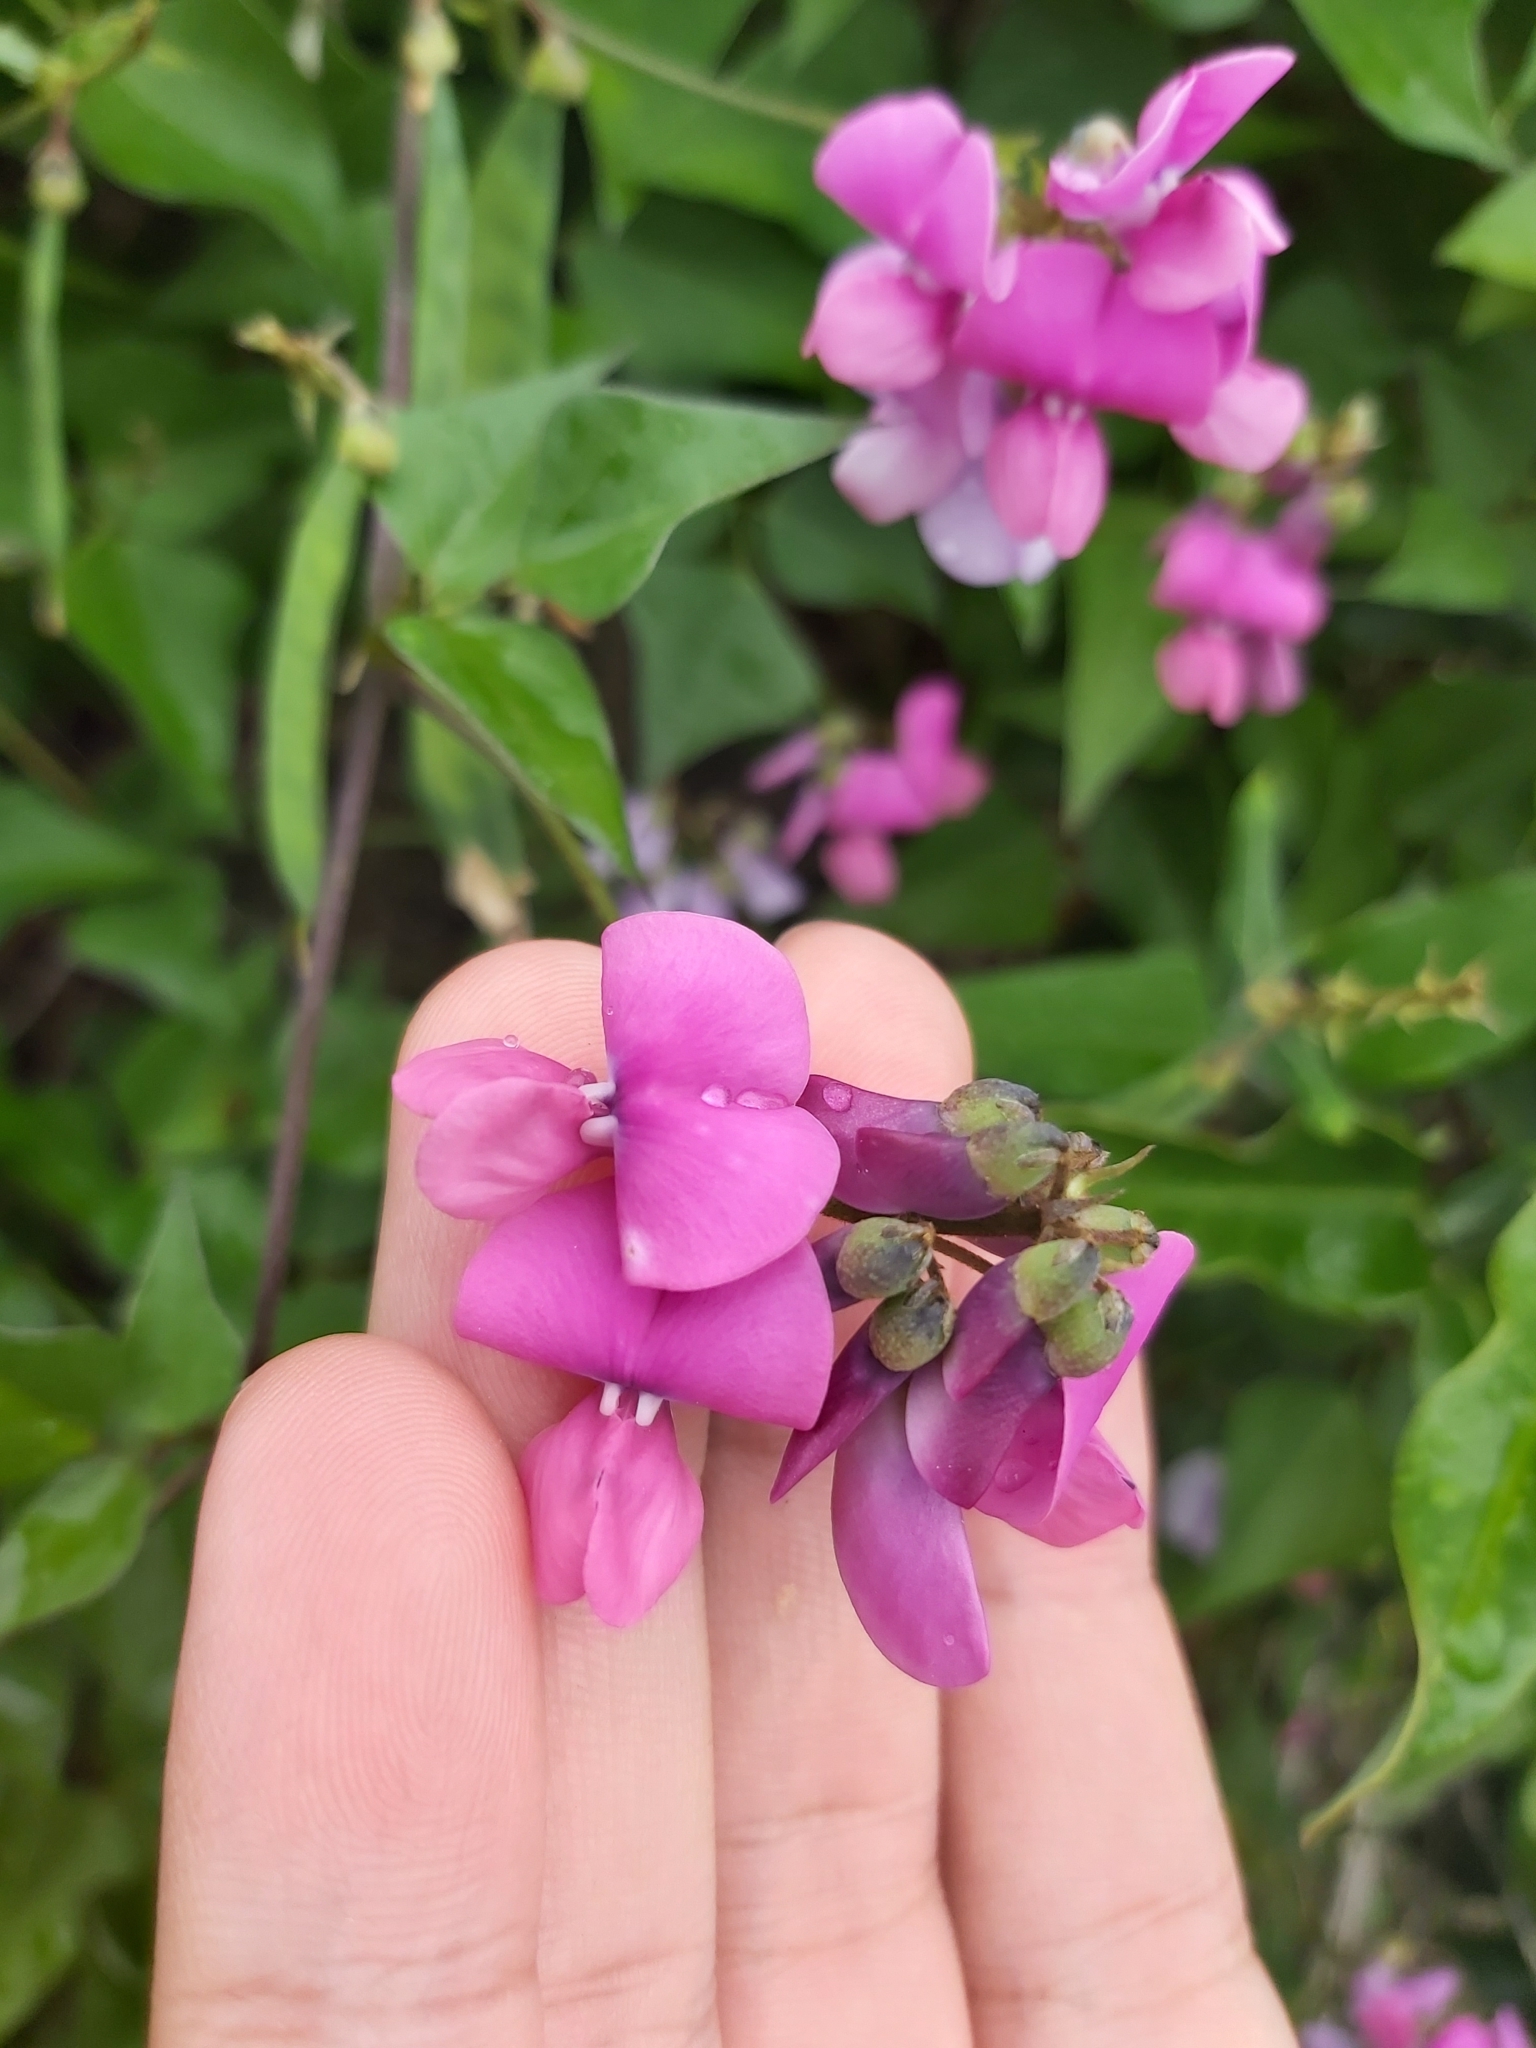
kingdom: Plantae
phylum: Tracheophyta
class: Magnoliopsida
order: Fabales
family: Fabaceae
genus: Dipogon
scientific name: Dipogon lignosus
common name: Okie bean
